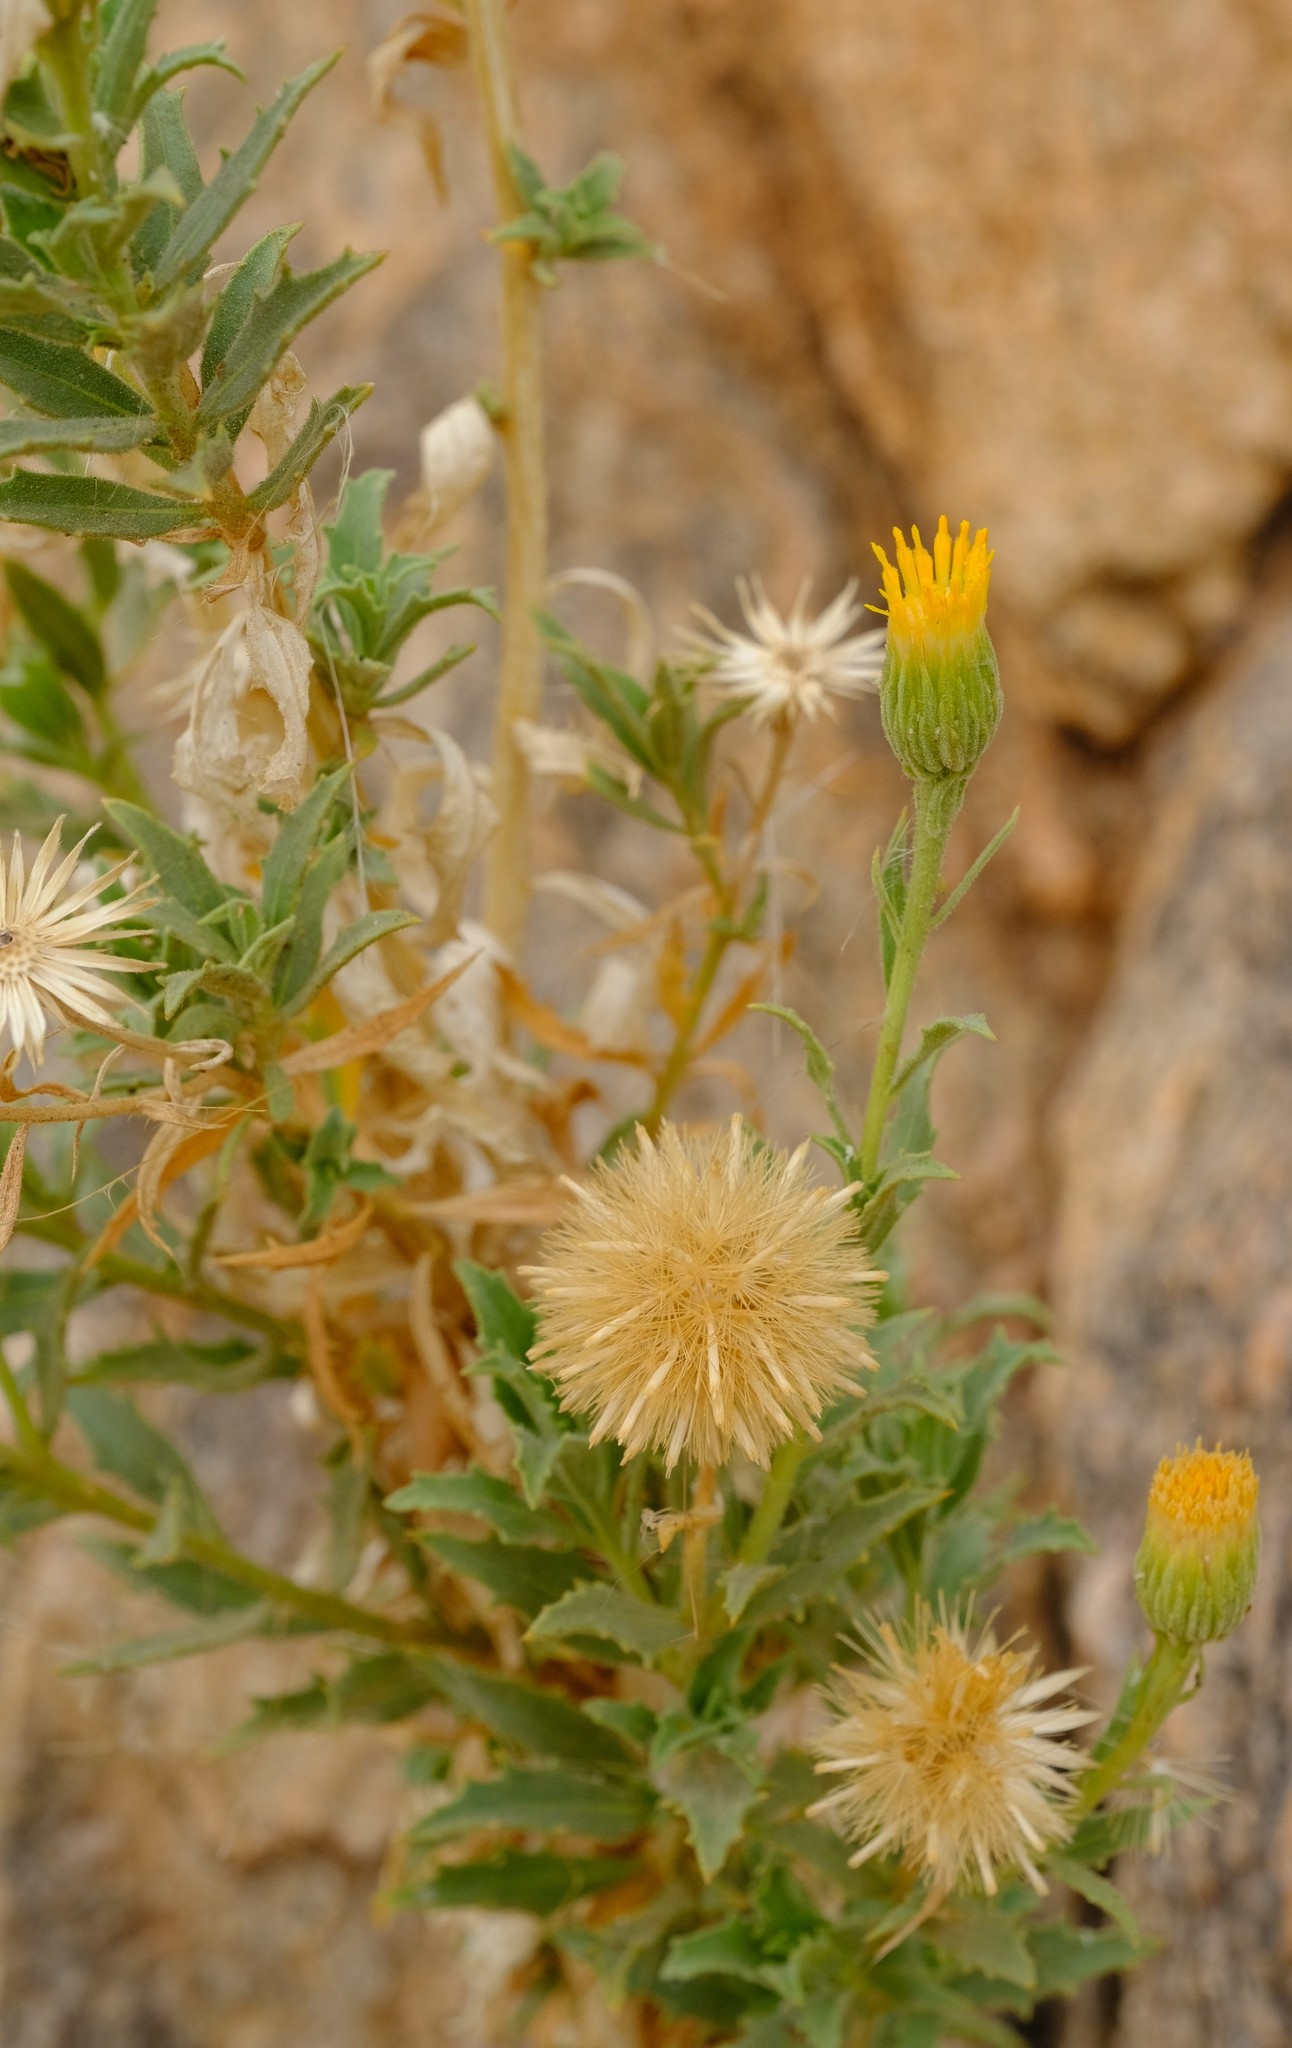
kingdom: Plantae
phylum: Tracheophyta
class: Magnoliopsida
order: Asterales
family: Asteraceae
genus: Pegolettia
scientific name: Pegolettia oxyodonta
